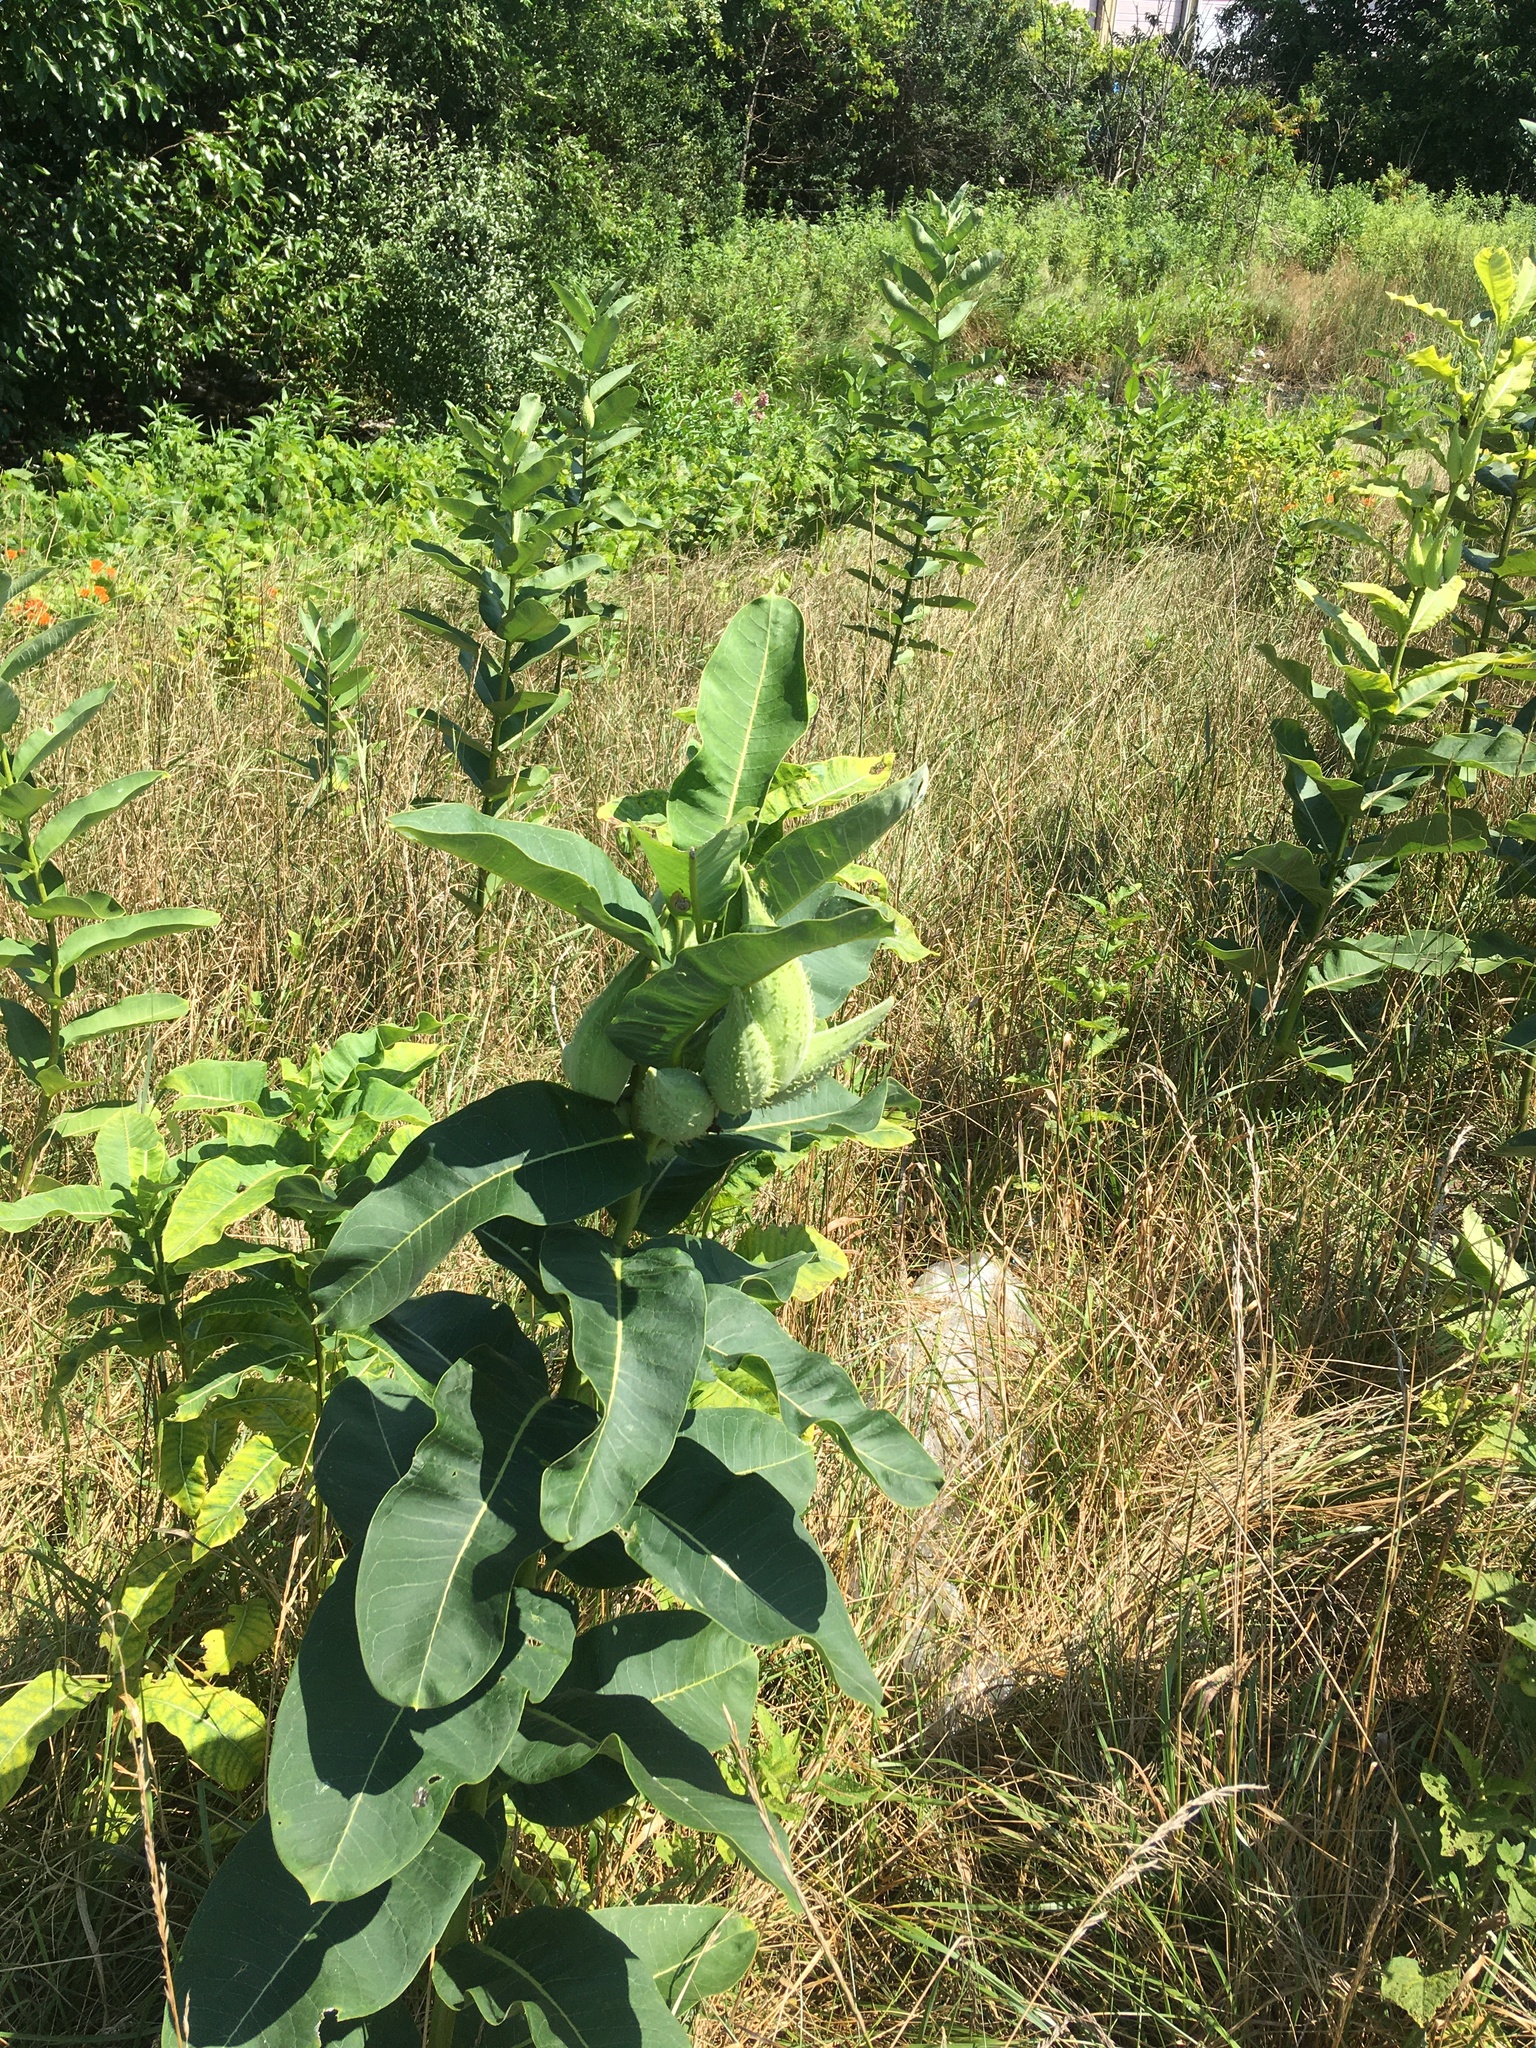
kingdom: Plantae
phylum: Tracheophyta
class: Magnoliopsida
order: Gentianales
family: Apocynaceae
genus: Asclepias
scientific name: Asclepias syriaca
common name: Common milkweed
